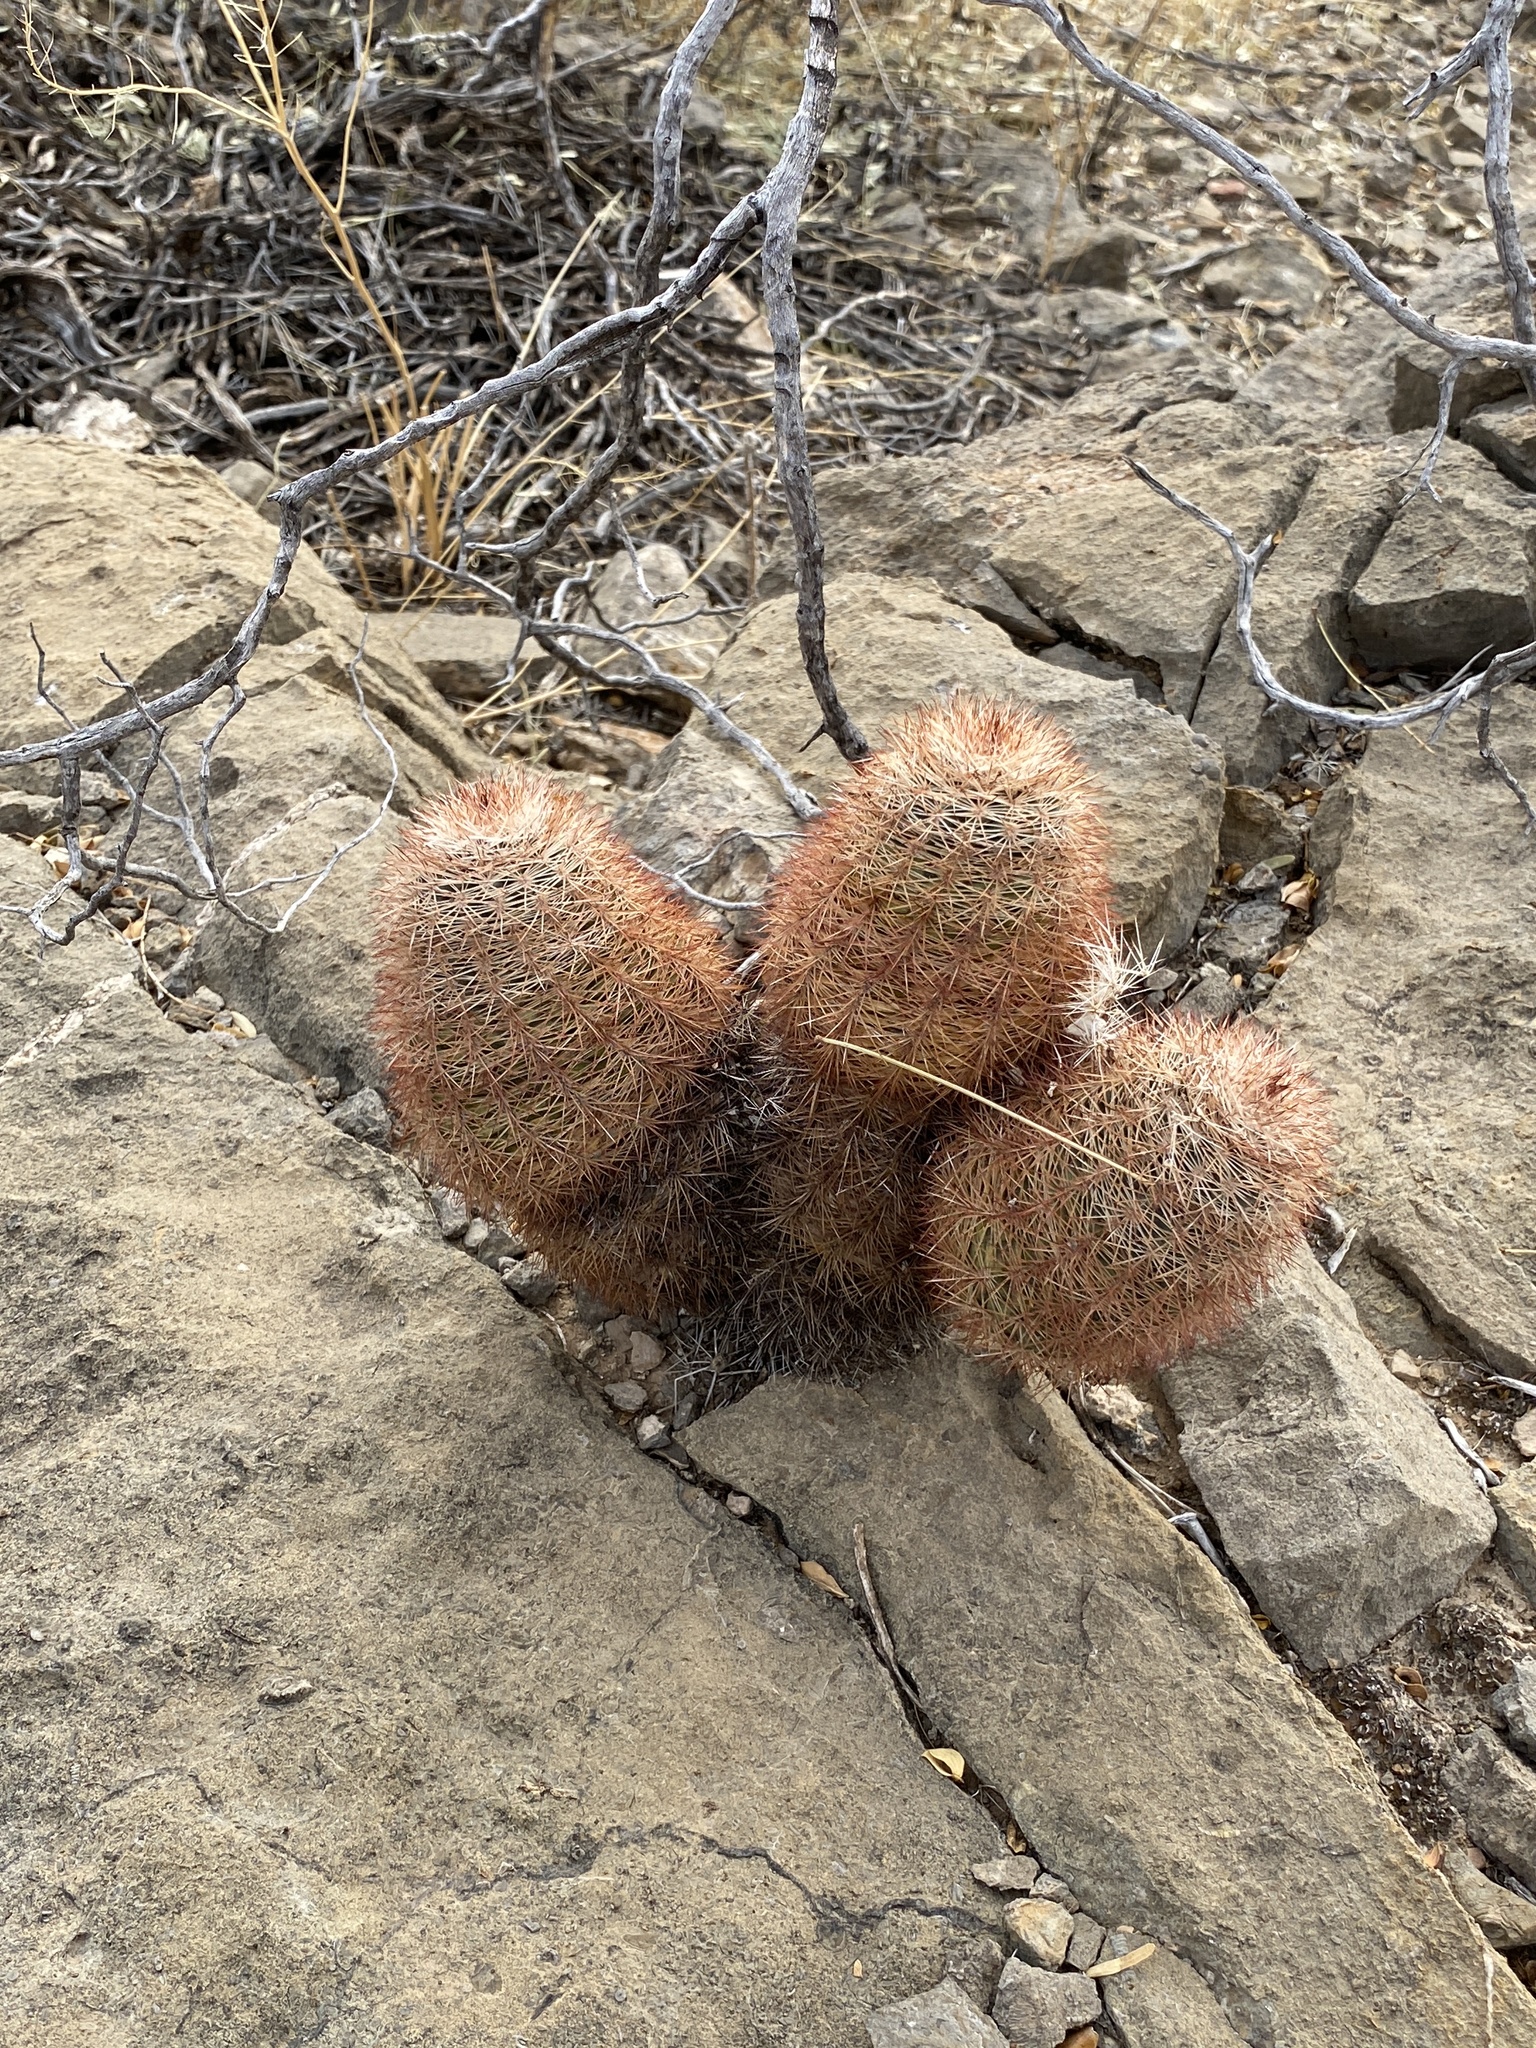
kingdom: Plantae
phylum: Tracheophyta
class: Magnoliopsida
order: Caryophyllales
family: Cactaceae
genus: Echinocereus
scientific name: Echinocereus dasyacanthus
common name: Spiny hedgehog cactus
